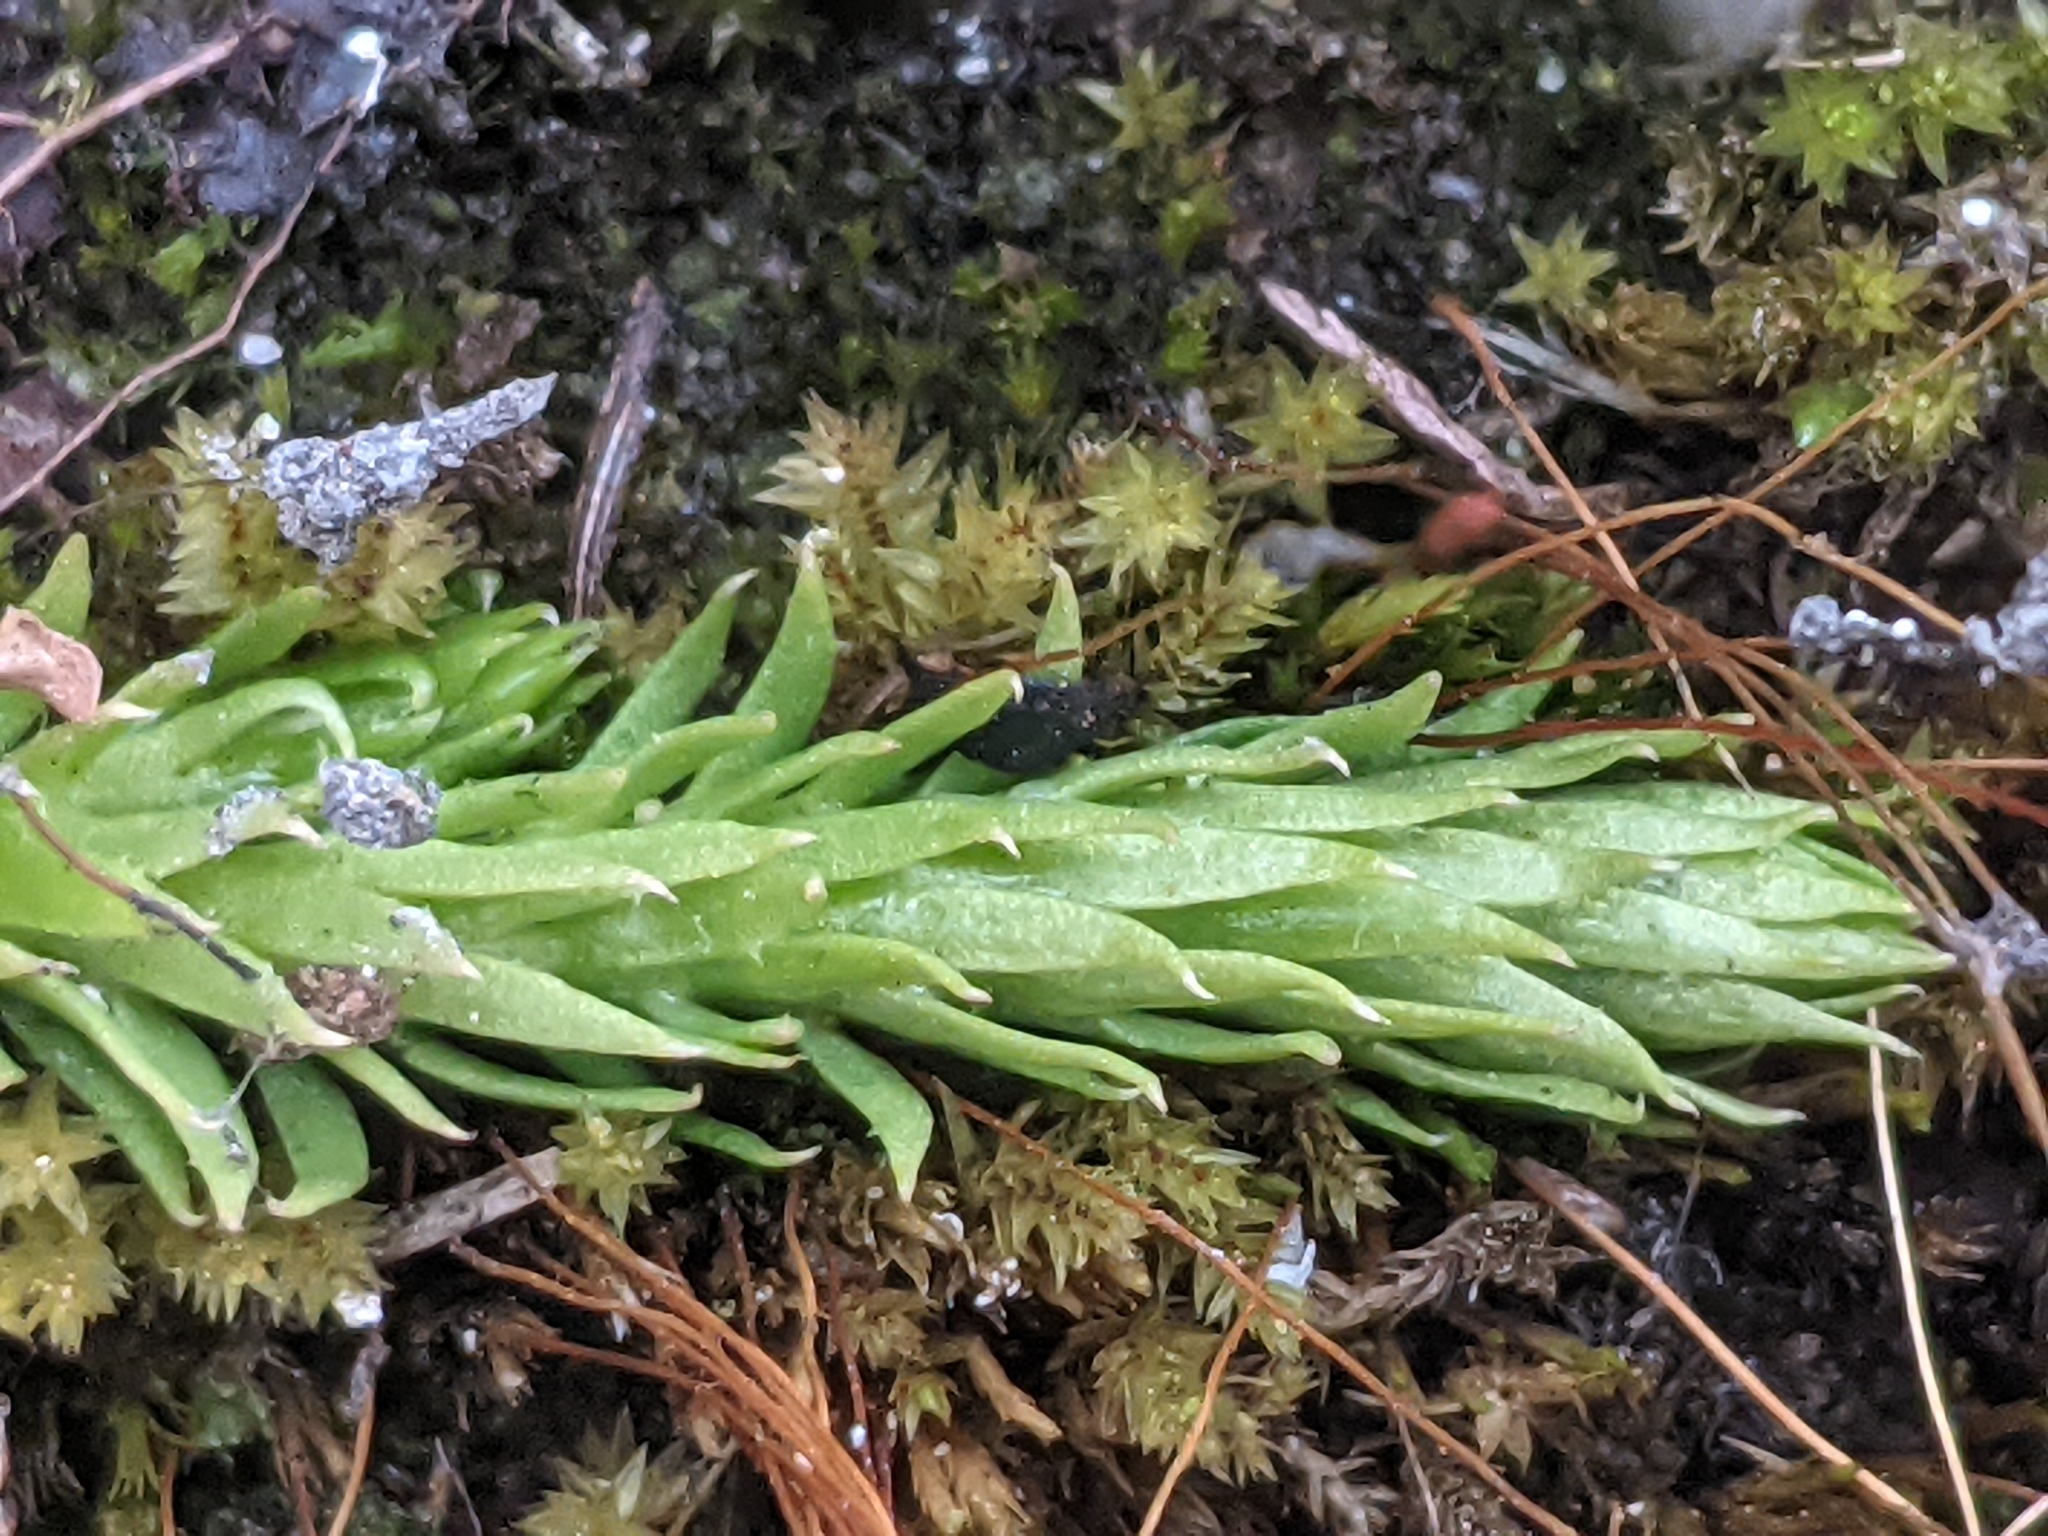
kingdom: Plantae
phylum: Tracheophyta
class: Lycopodiopsida
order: Lycopodiales
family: Lycopodiaceae
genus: Lycopodiella
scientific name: Lycopodiella inundata
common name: Marsh clubmoss
